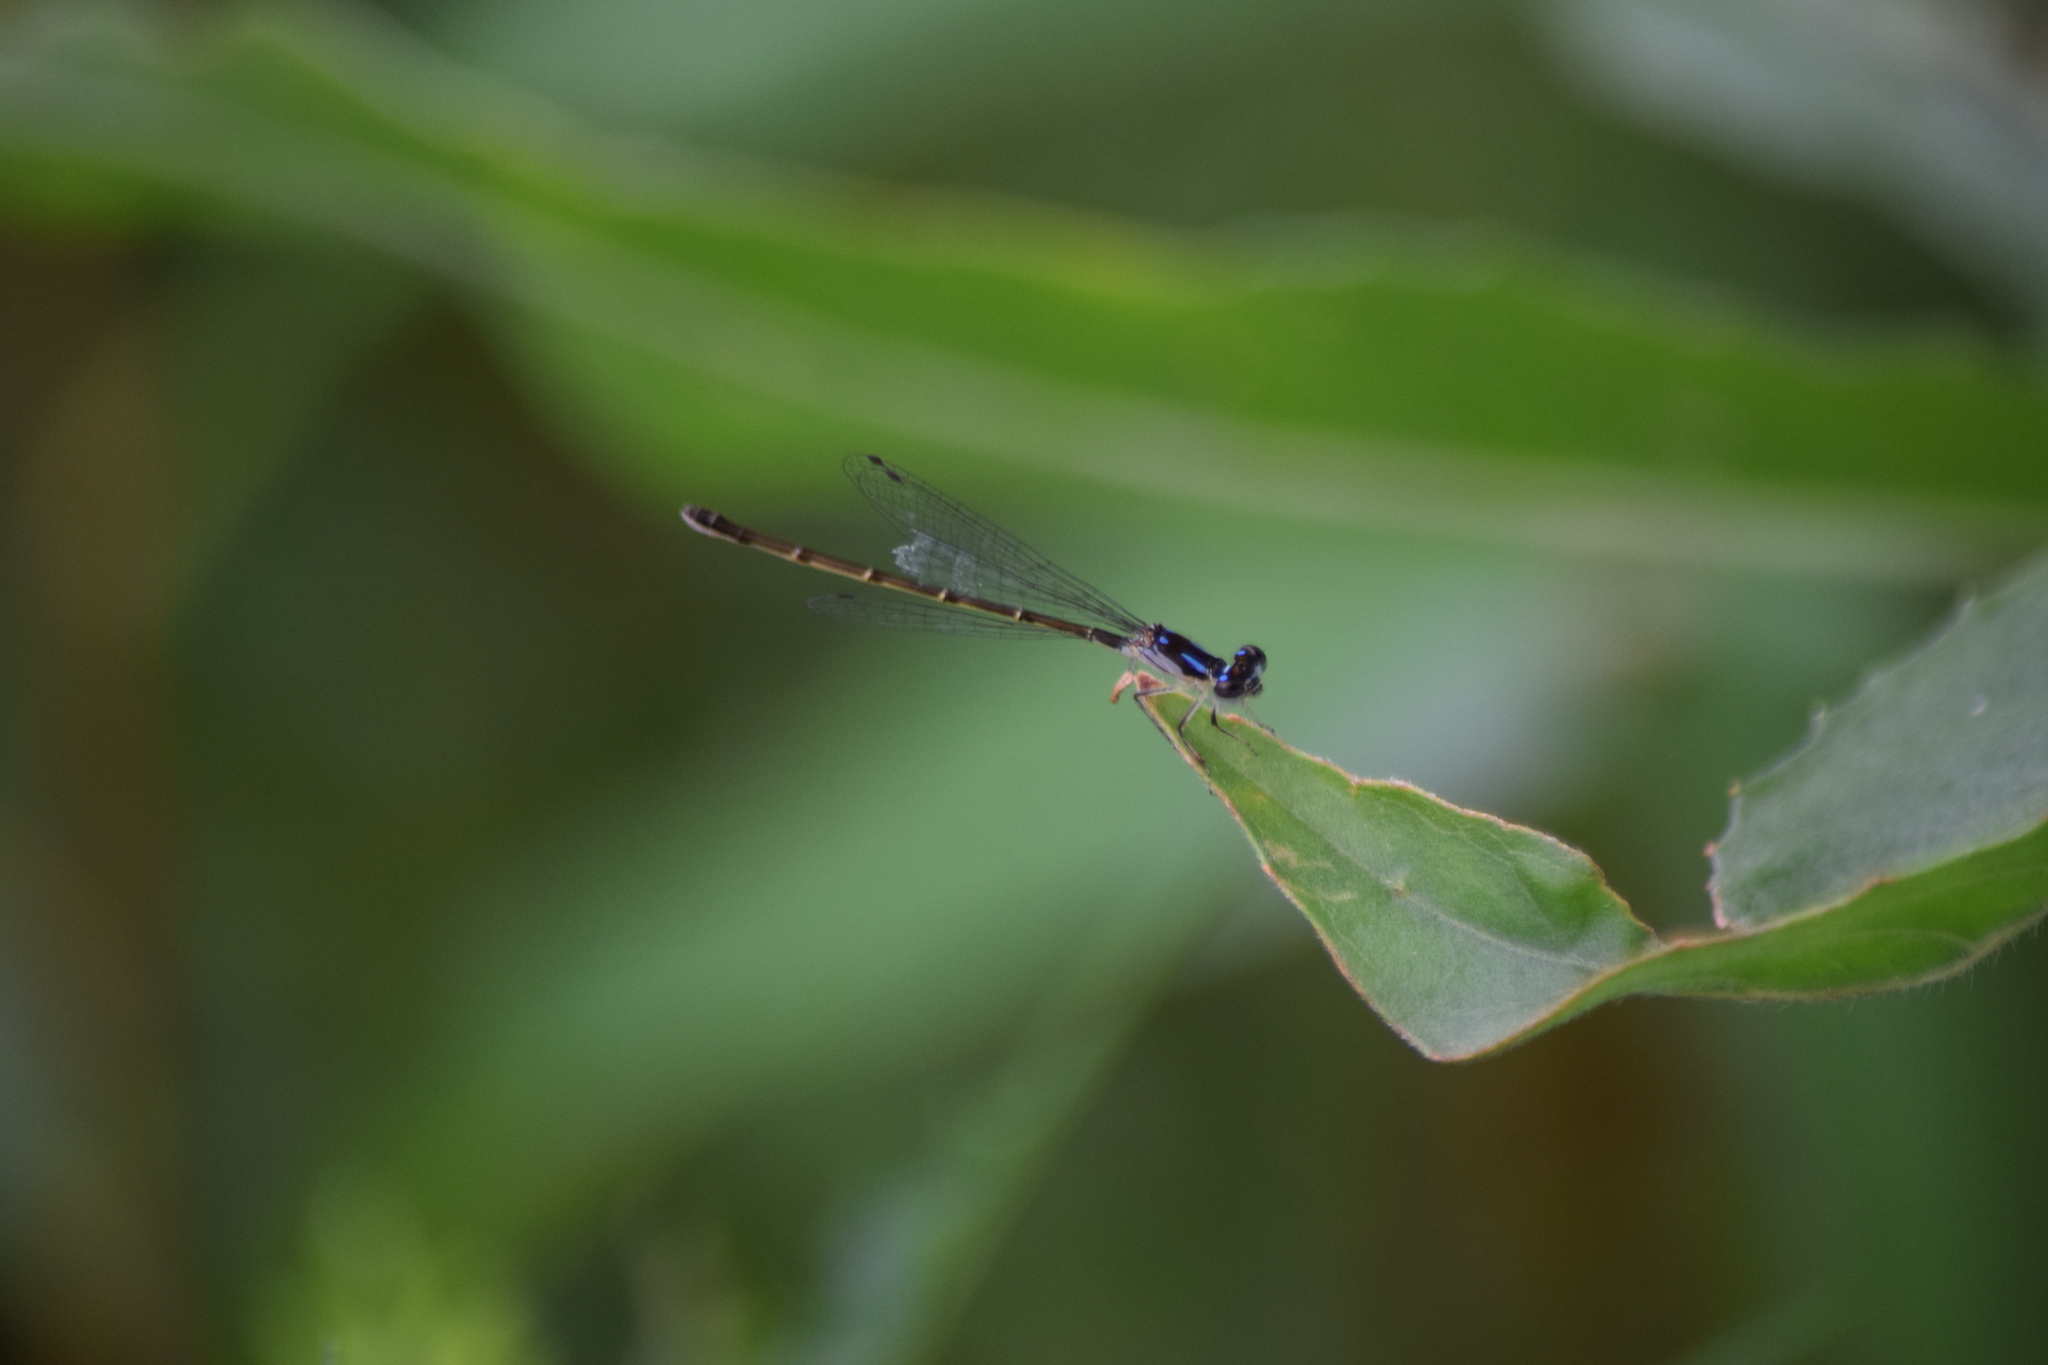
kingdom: Animalia
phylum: Arthropoda
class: Insecta
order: Odonata
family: Coenagrionidae
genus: Ischnura
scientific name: Ischnura posita
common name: Fragile forktail
